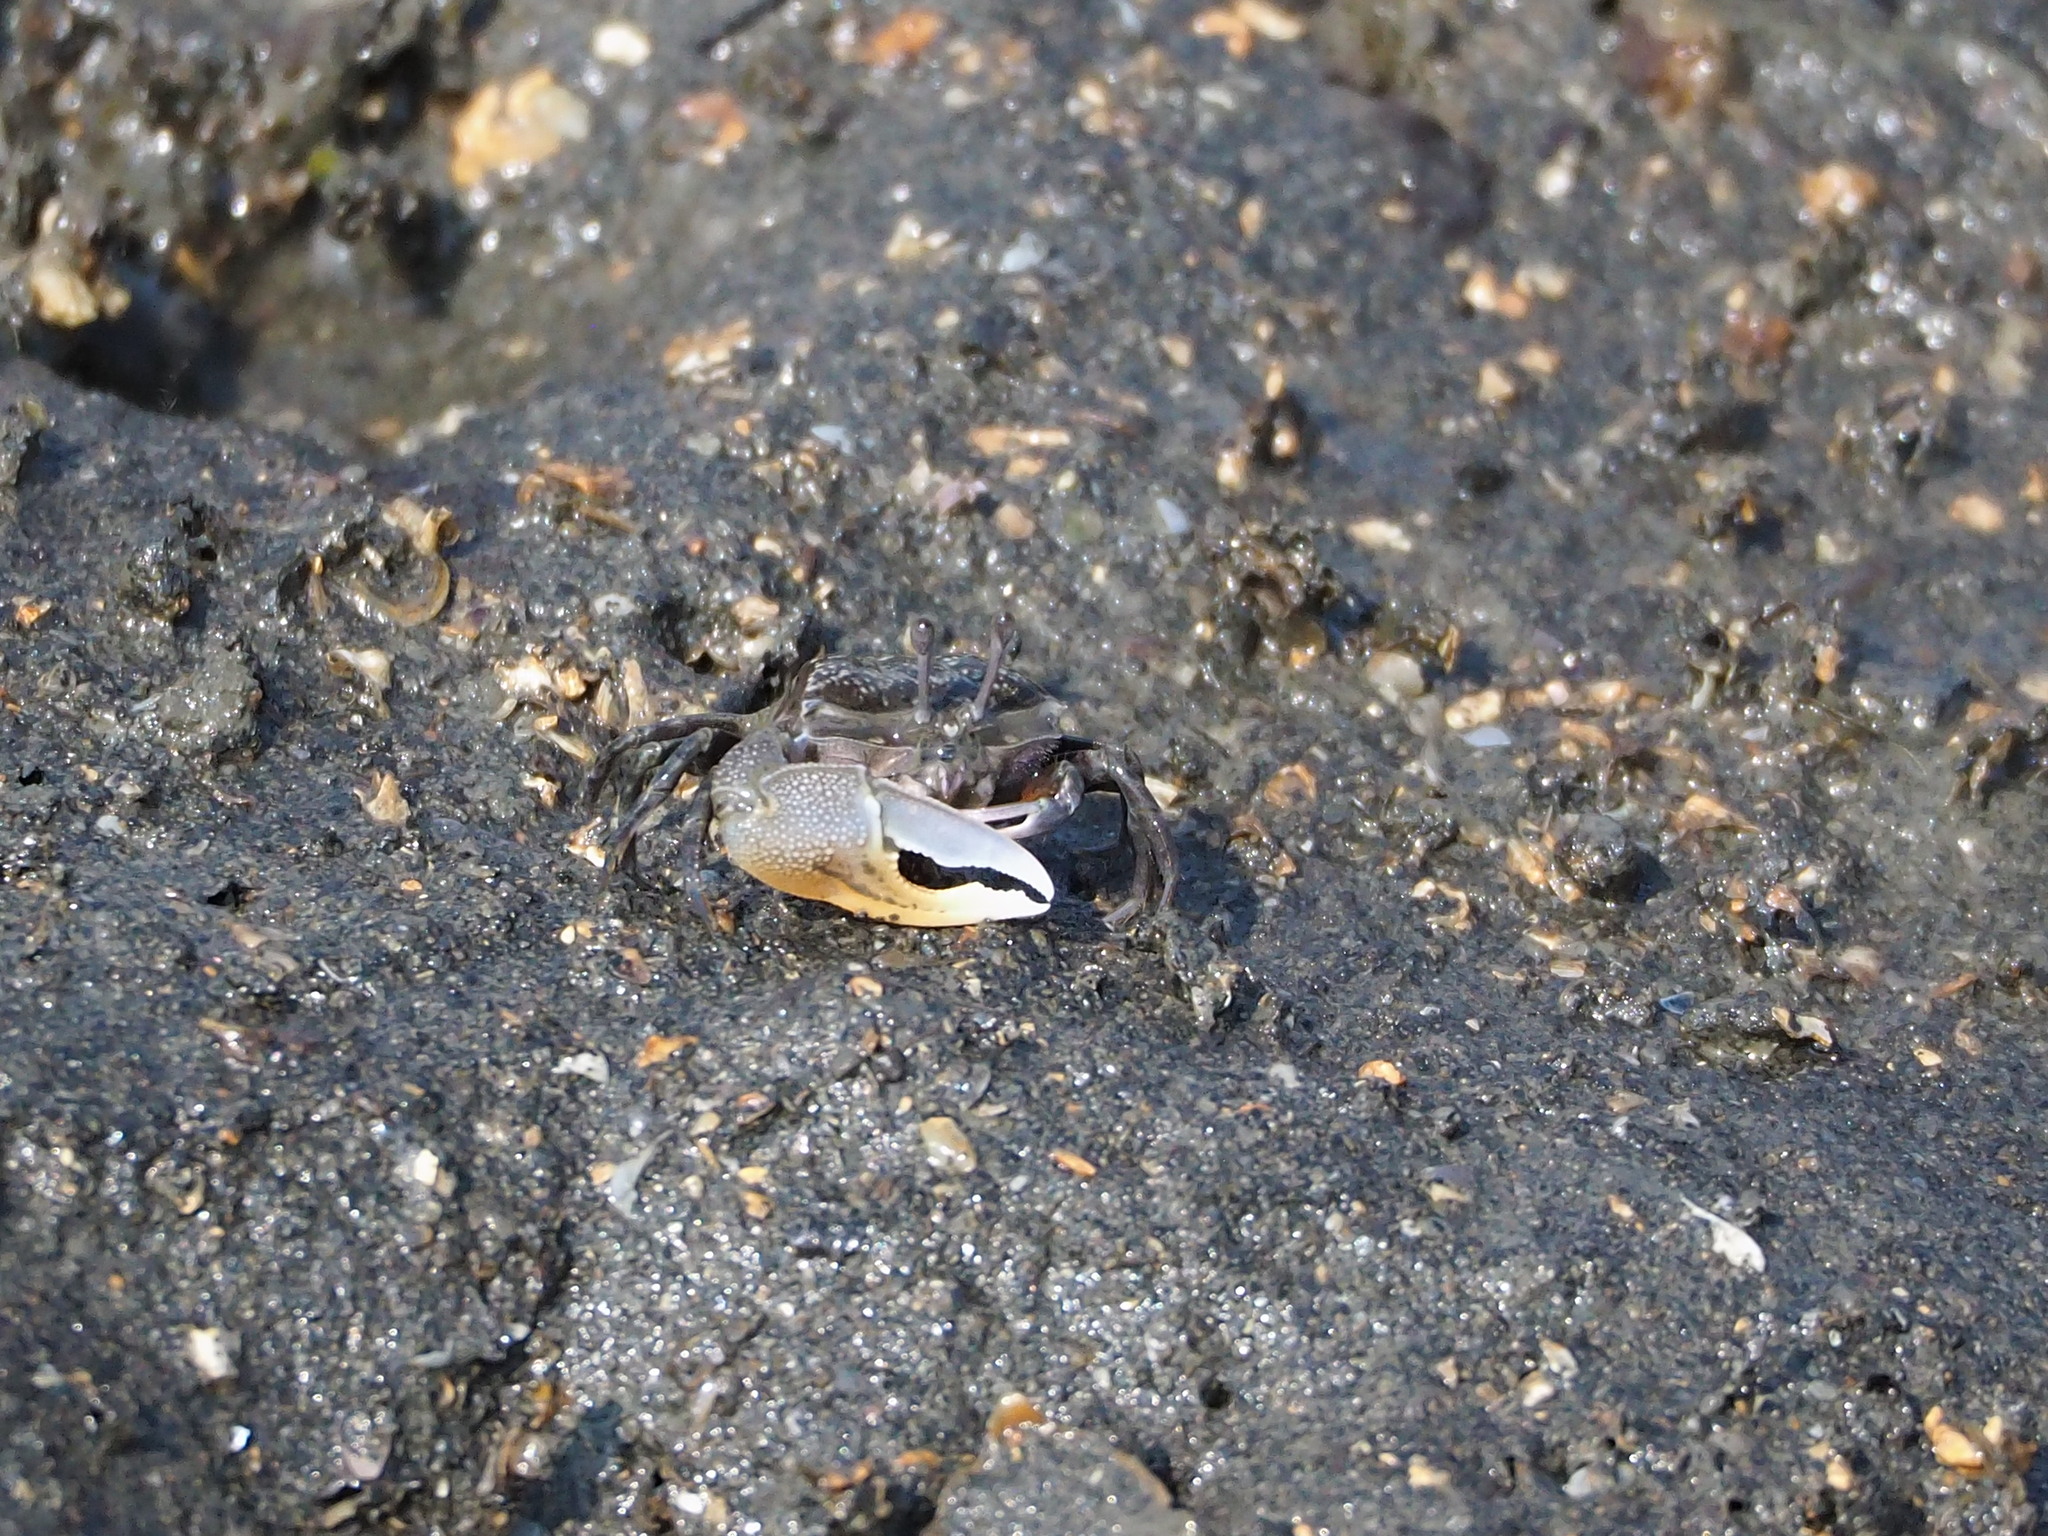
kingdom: Animalia
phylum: Arthropoda
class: Malacostraca
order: Decapoda
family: Ocypodidae
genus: Gelasimus
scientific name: Gelasimus borealis
